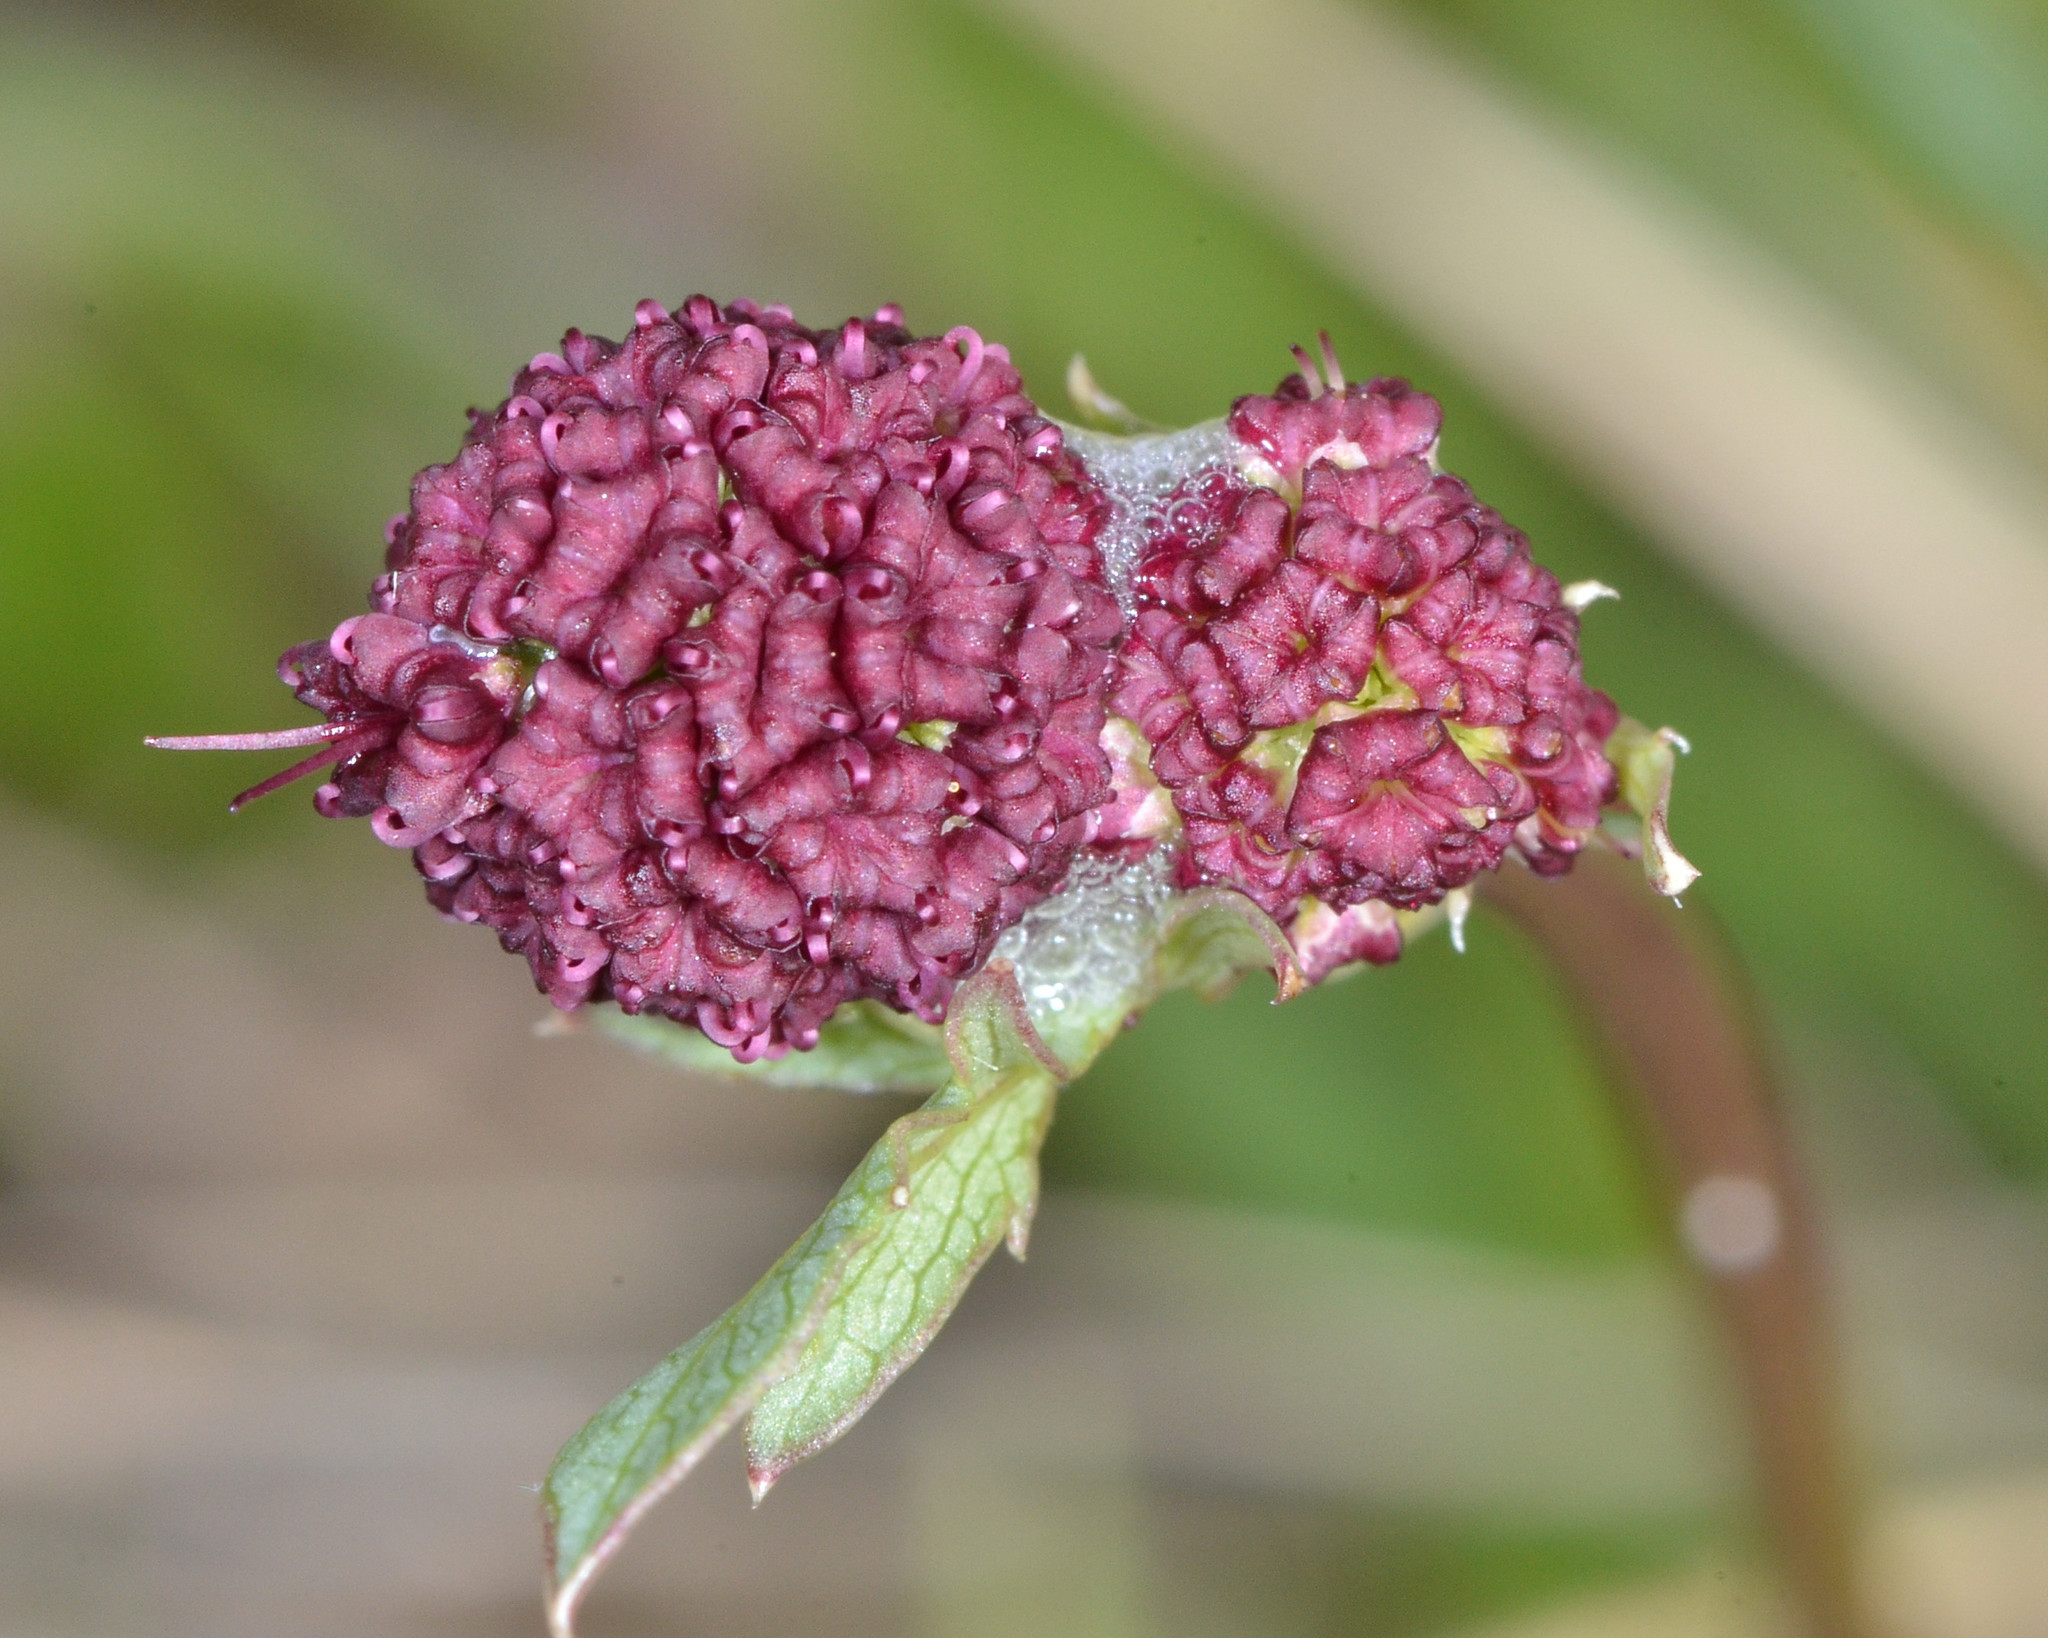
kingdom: Plantae
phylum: Tracheophyta
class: Magnoliopsida
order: Apiales
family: Apiaceae
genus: Sanicula
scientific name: Sanicula bipinnatifida
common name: Shoe-buttons
